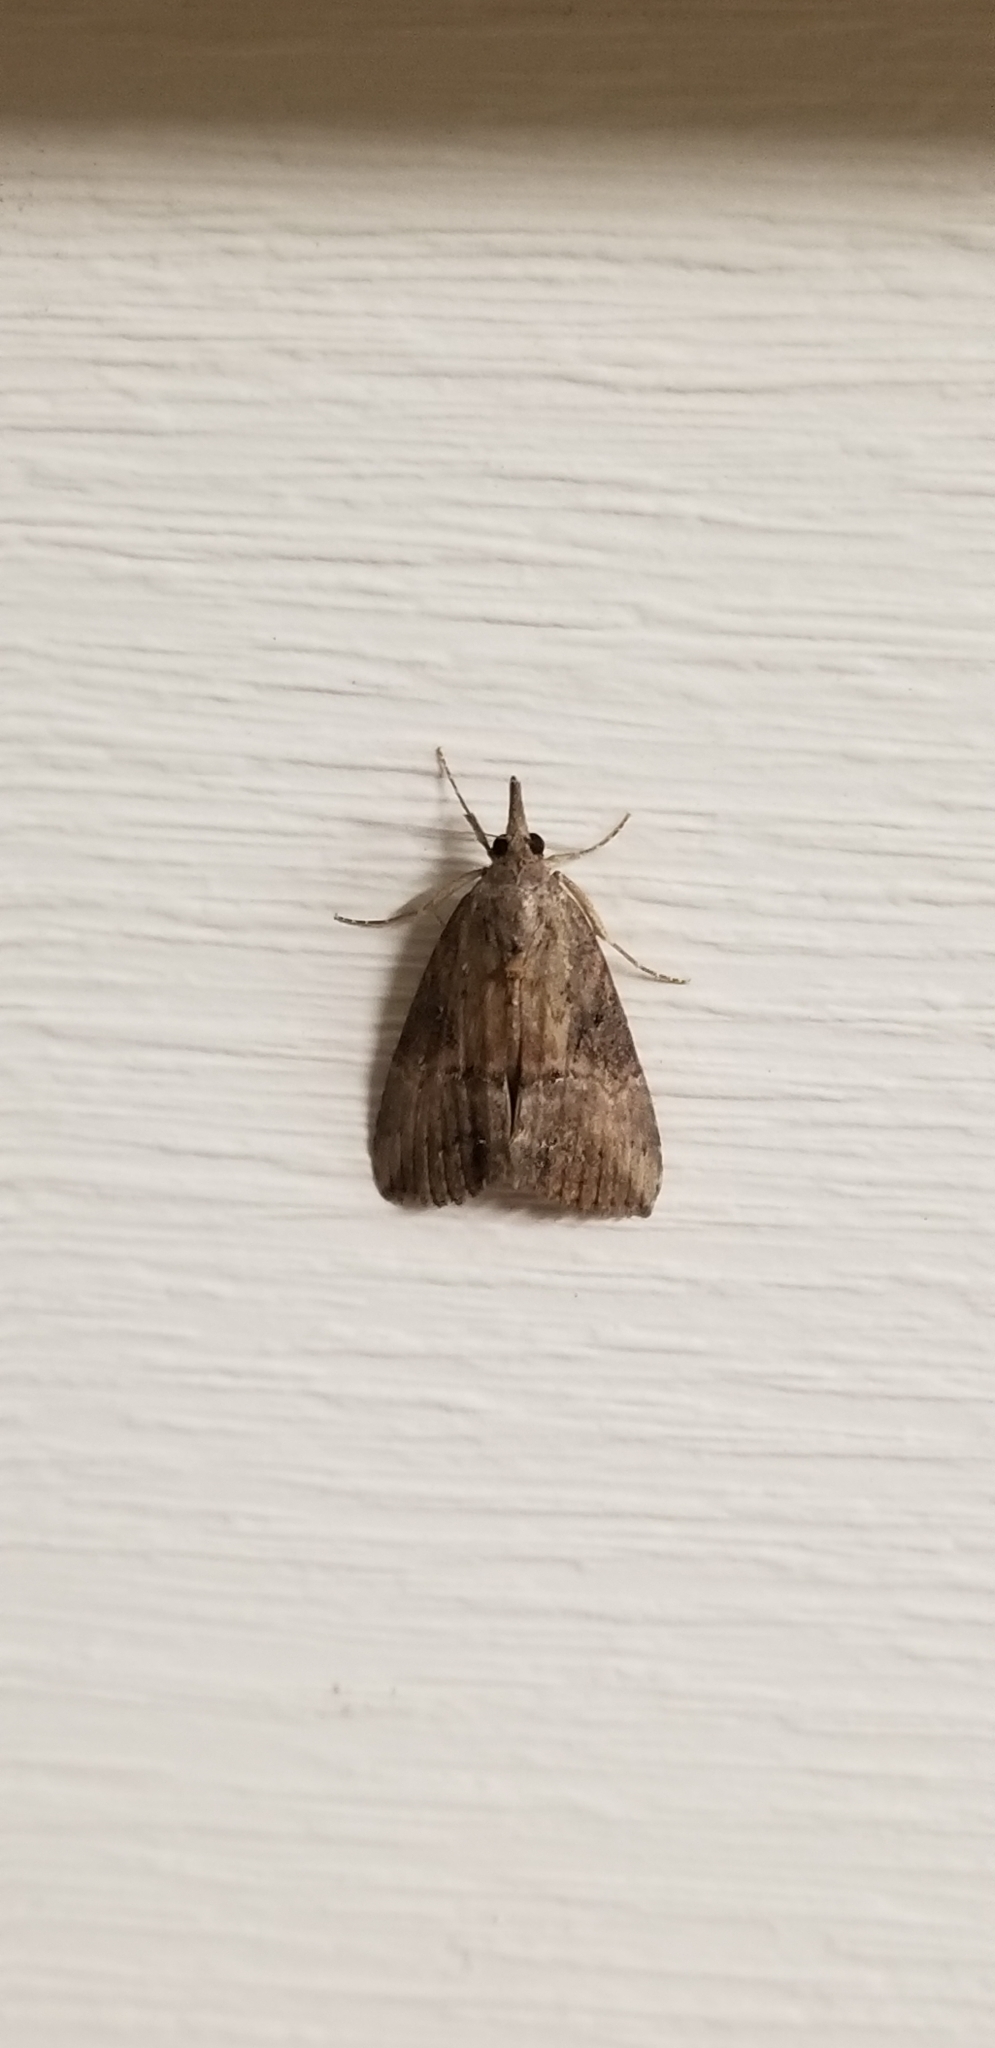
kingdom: Animalia
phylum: Arthropoda
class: Insecta
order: Lepidoptera
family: Erebidae
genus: Hypena
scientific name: Hypena scabra
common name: Green cloverworm
